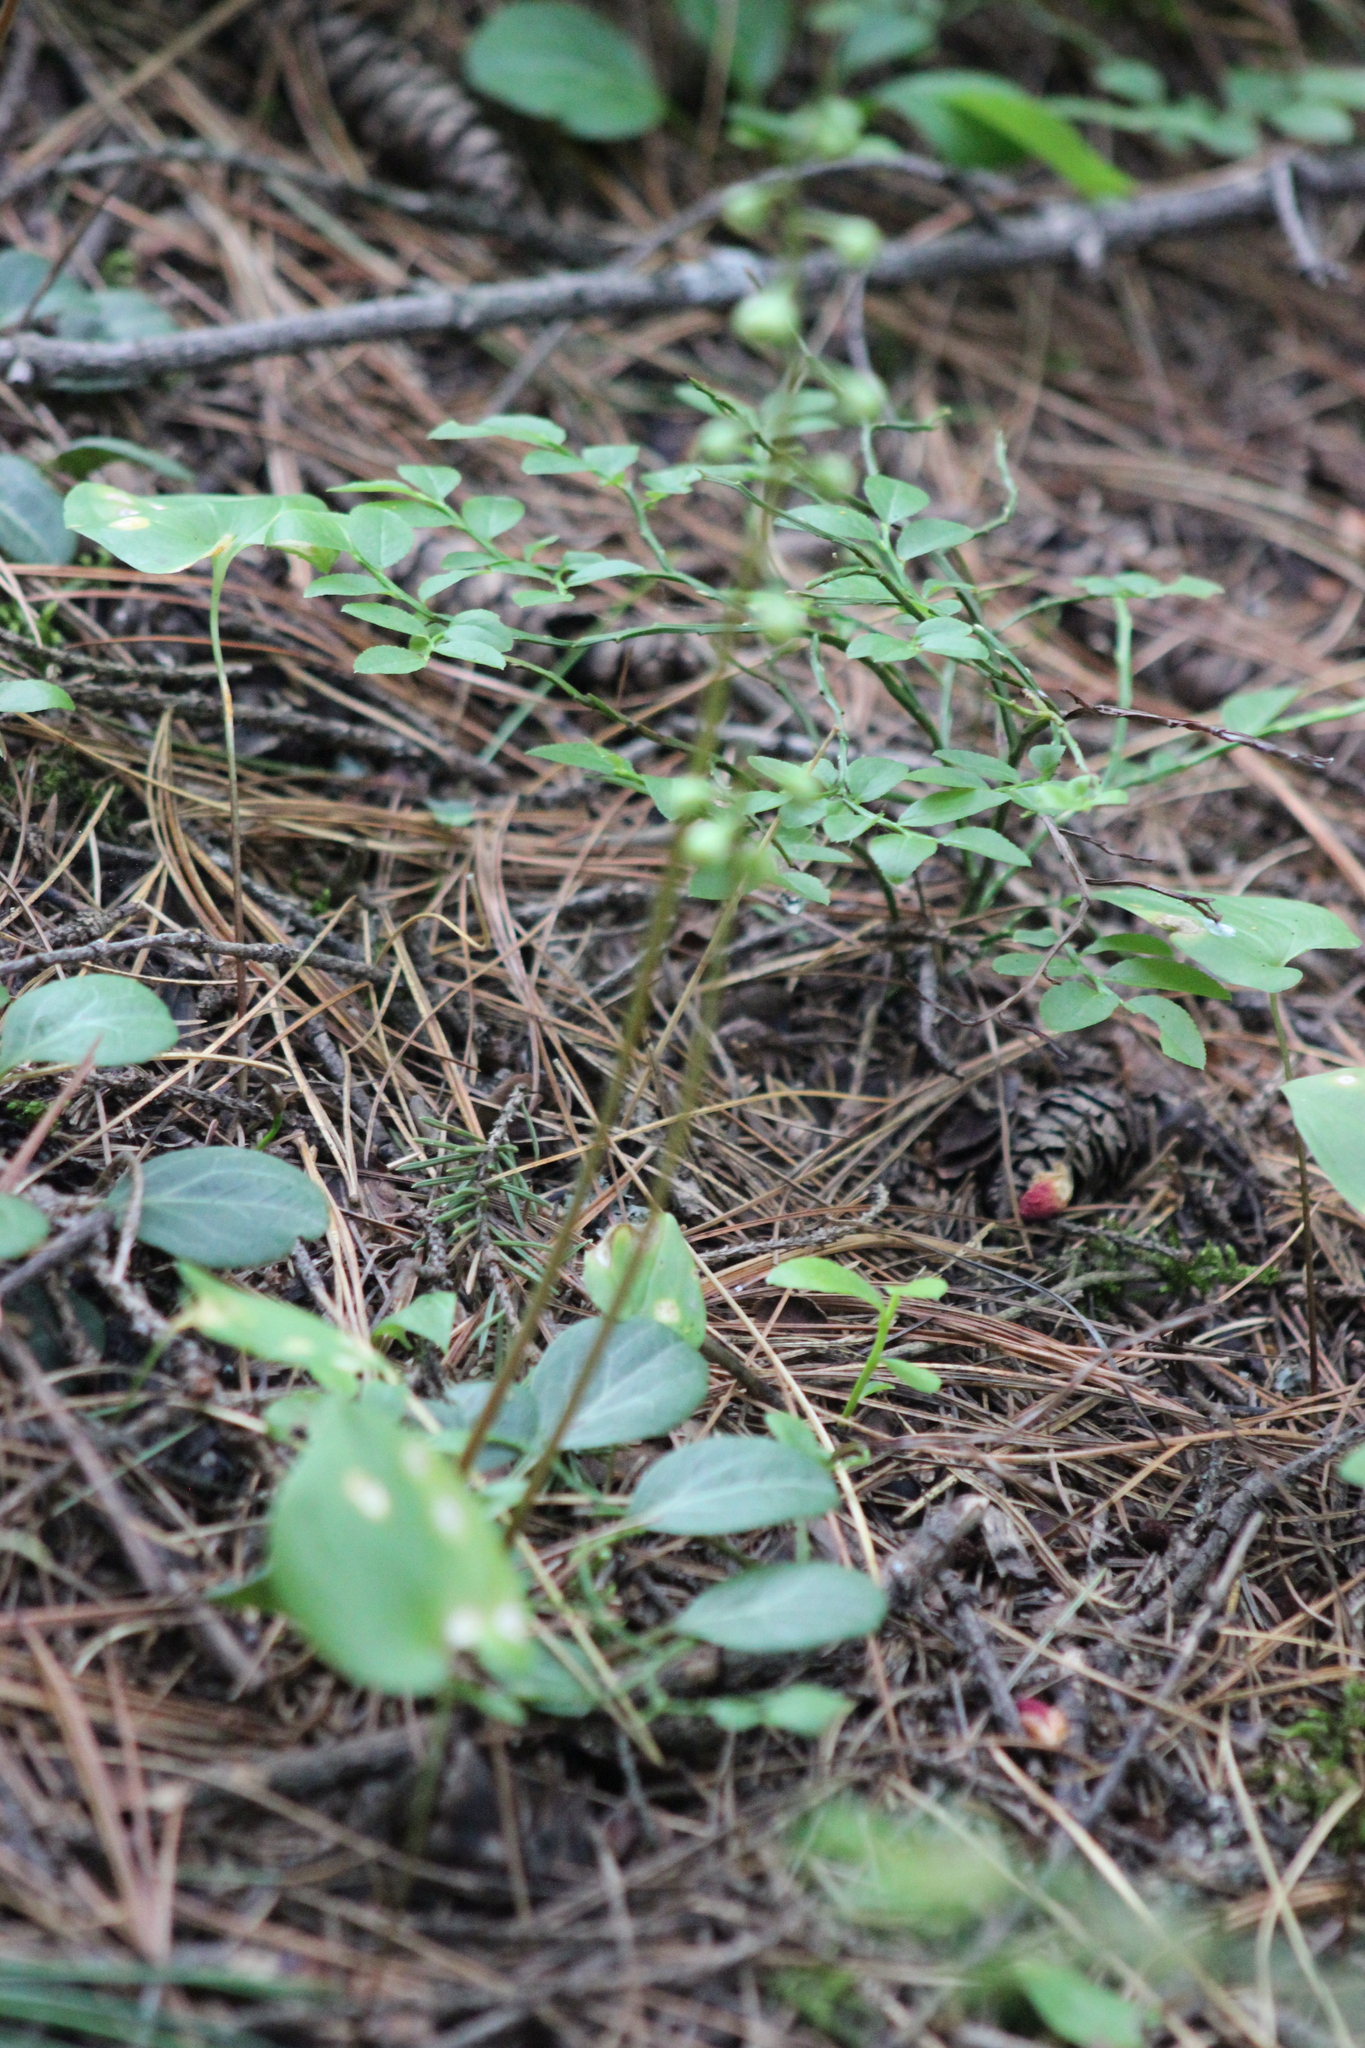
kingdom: Plantae
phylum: Tracheophyta
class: Magnoliopsida
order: Ericales
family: Ericaceae
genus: Pyrola
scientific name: Pyrola chlorantha
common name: Green wintergreen
